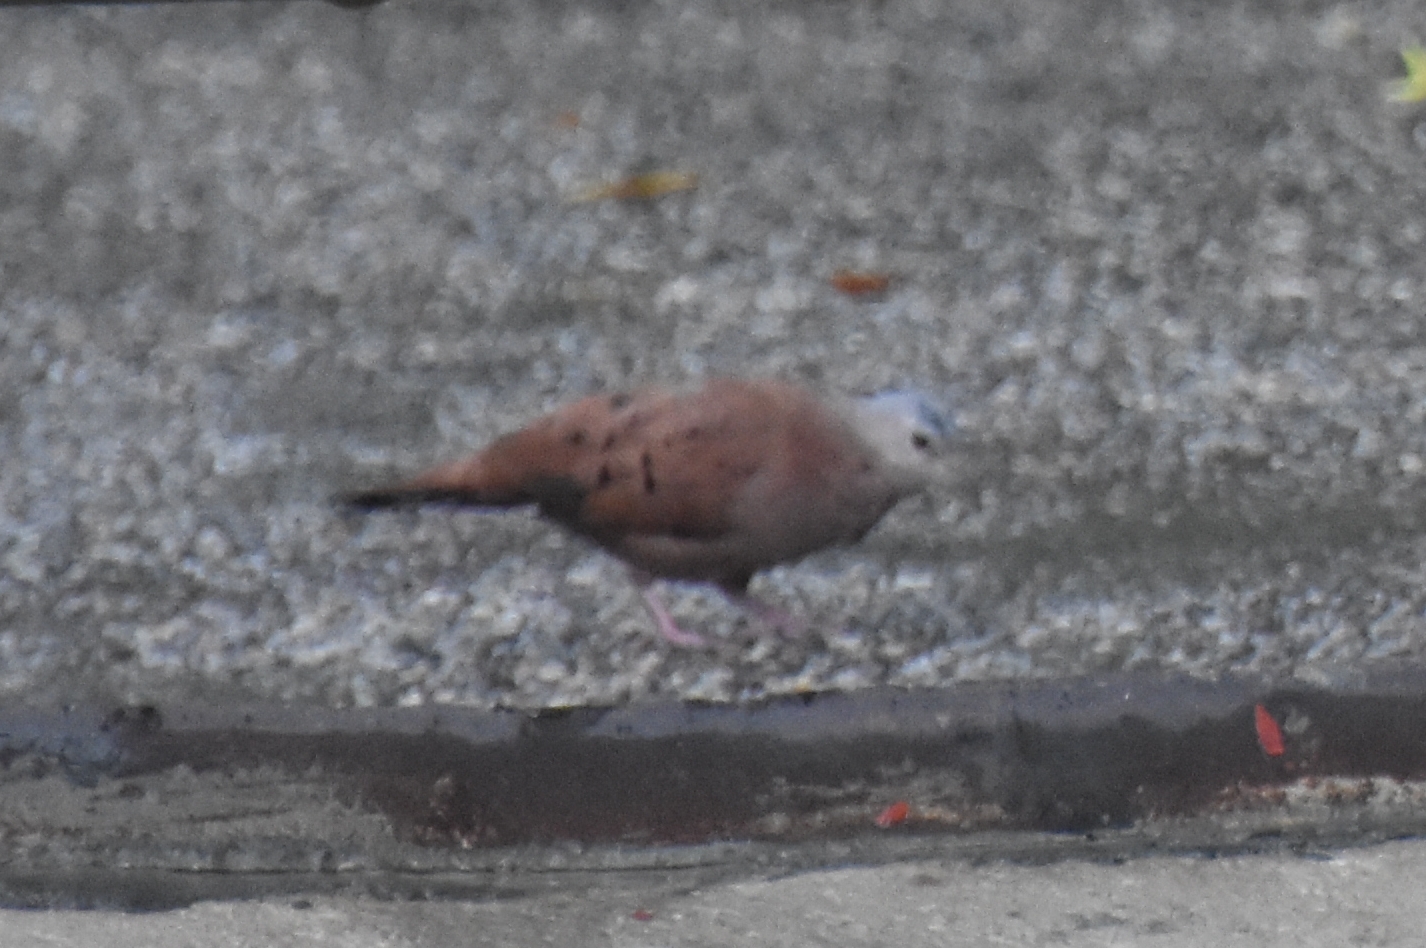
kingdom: Animalia
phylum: Chordata
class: Aves
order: Columbiformes
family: Columbidae
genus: Columbina
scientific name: Columbina talpacoti
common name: Ruddy ground dove
